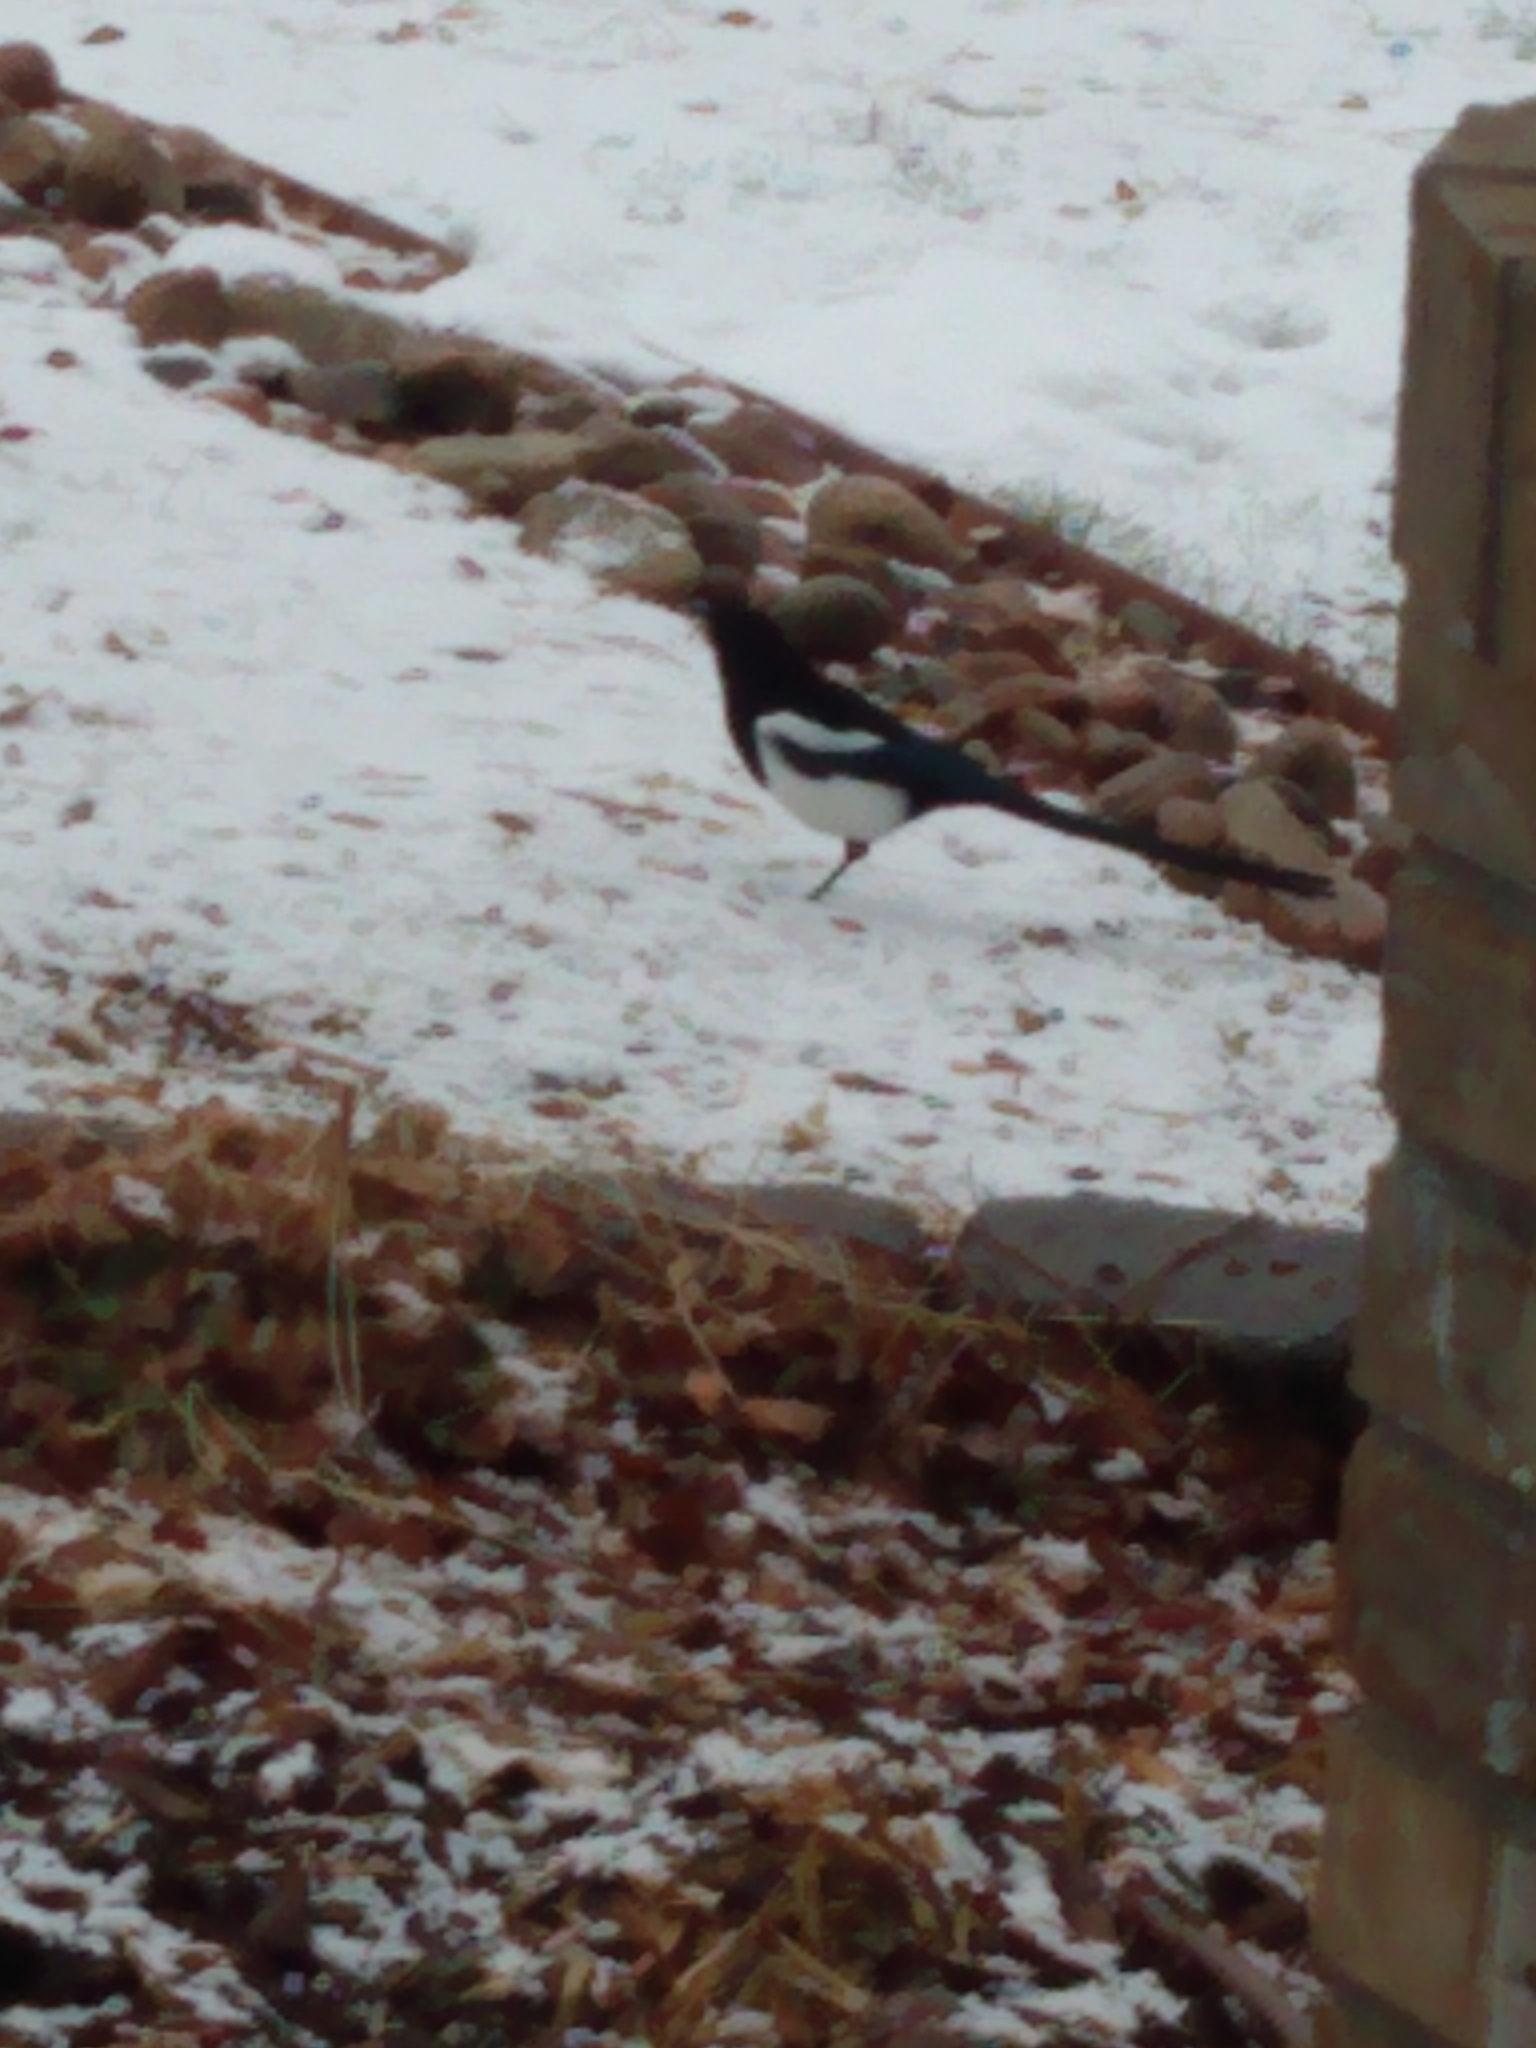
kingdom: Animalia
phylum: Chordata
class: Aves
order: Passeriformes
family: Corvidae
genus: Pica
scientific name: Pica hudsonia
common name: Black-billed magpie
